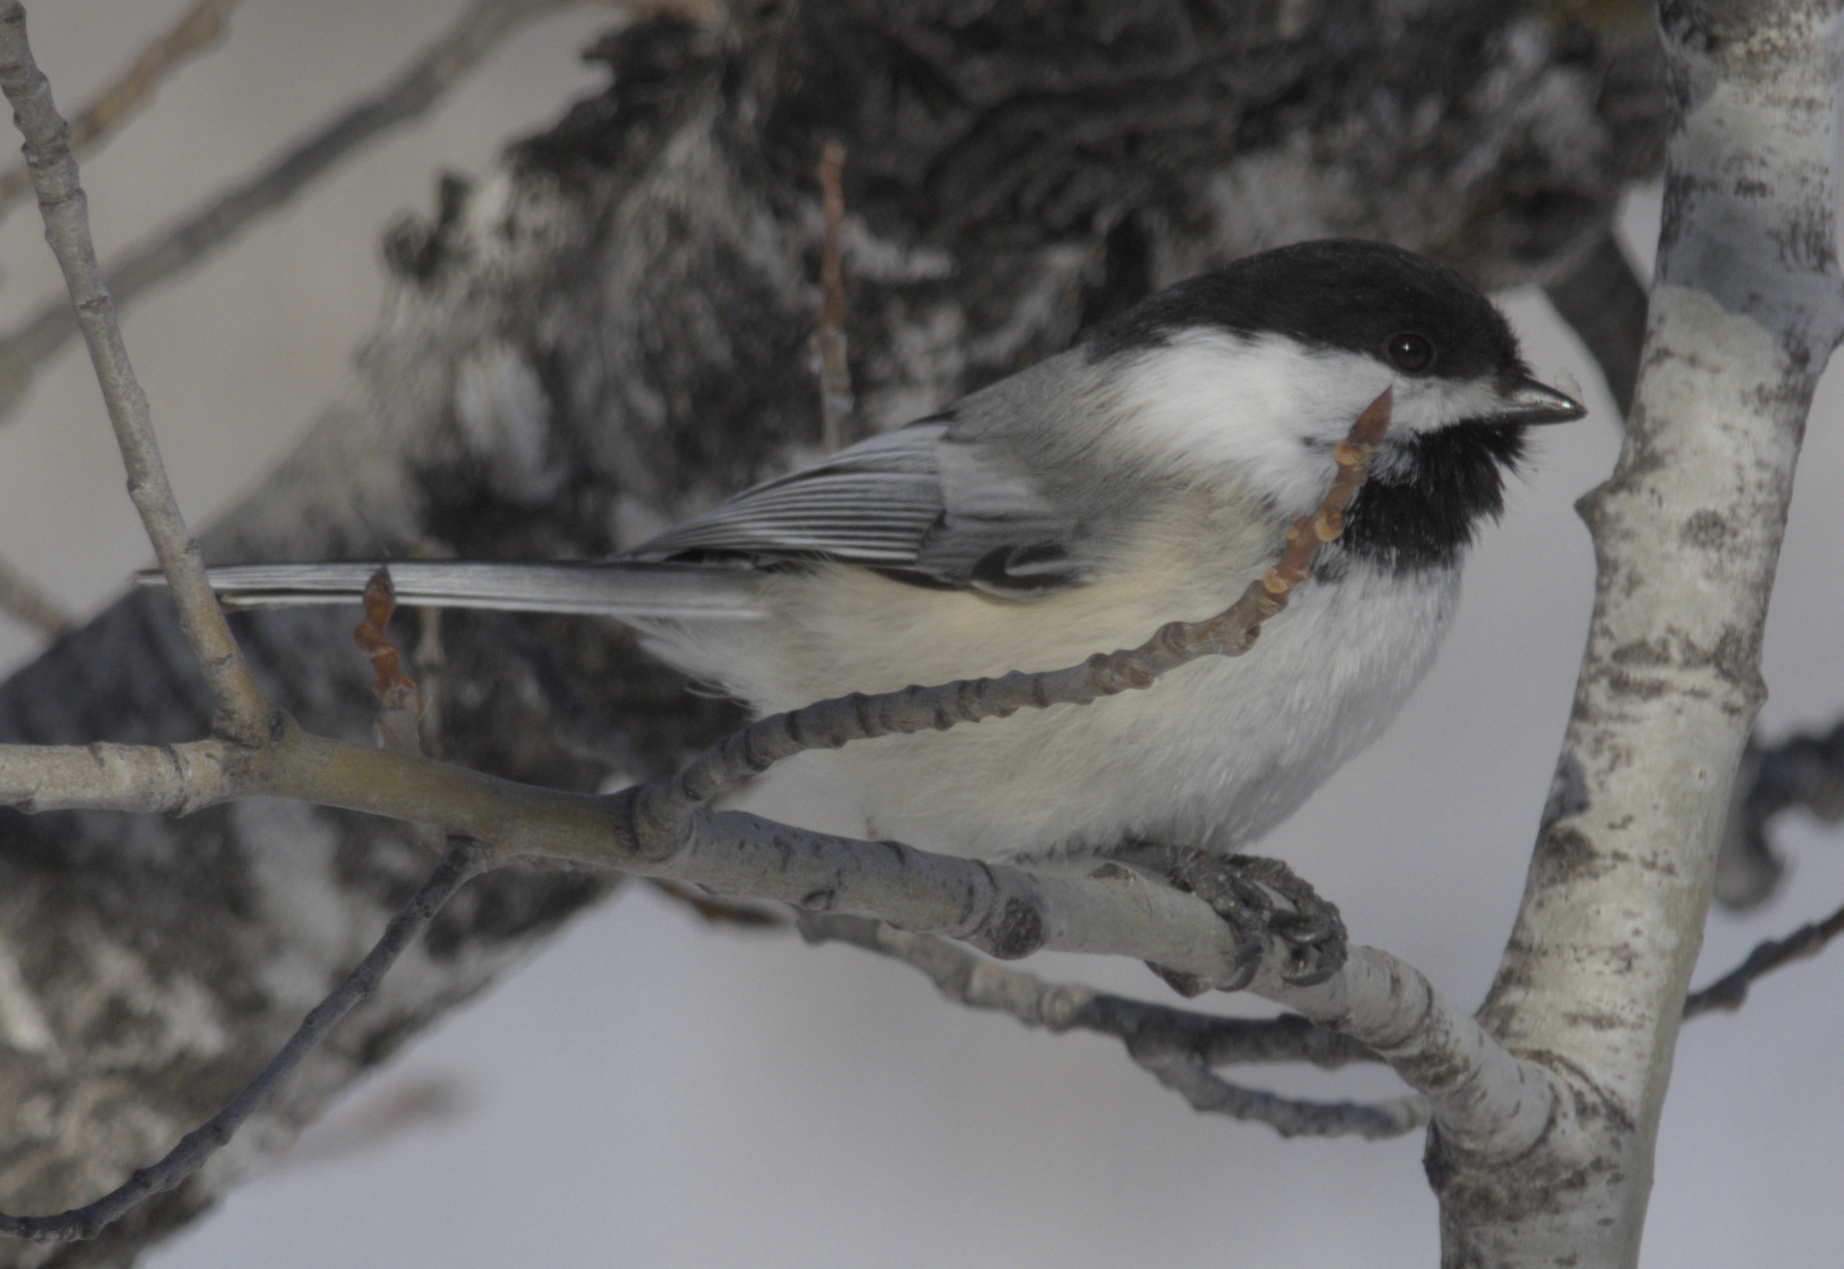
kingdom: Animalia
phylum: Chordata
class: Aves
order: Passeriformes
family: Paridae
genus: Poecile
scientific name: Poecile atricapillus
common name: Black-capped chickadee
